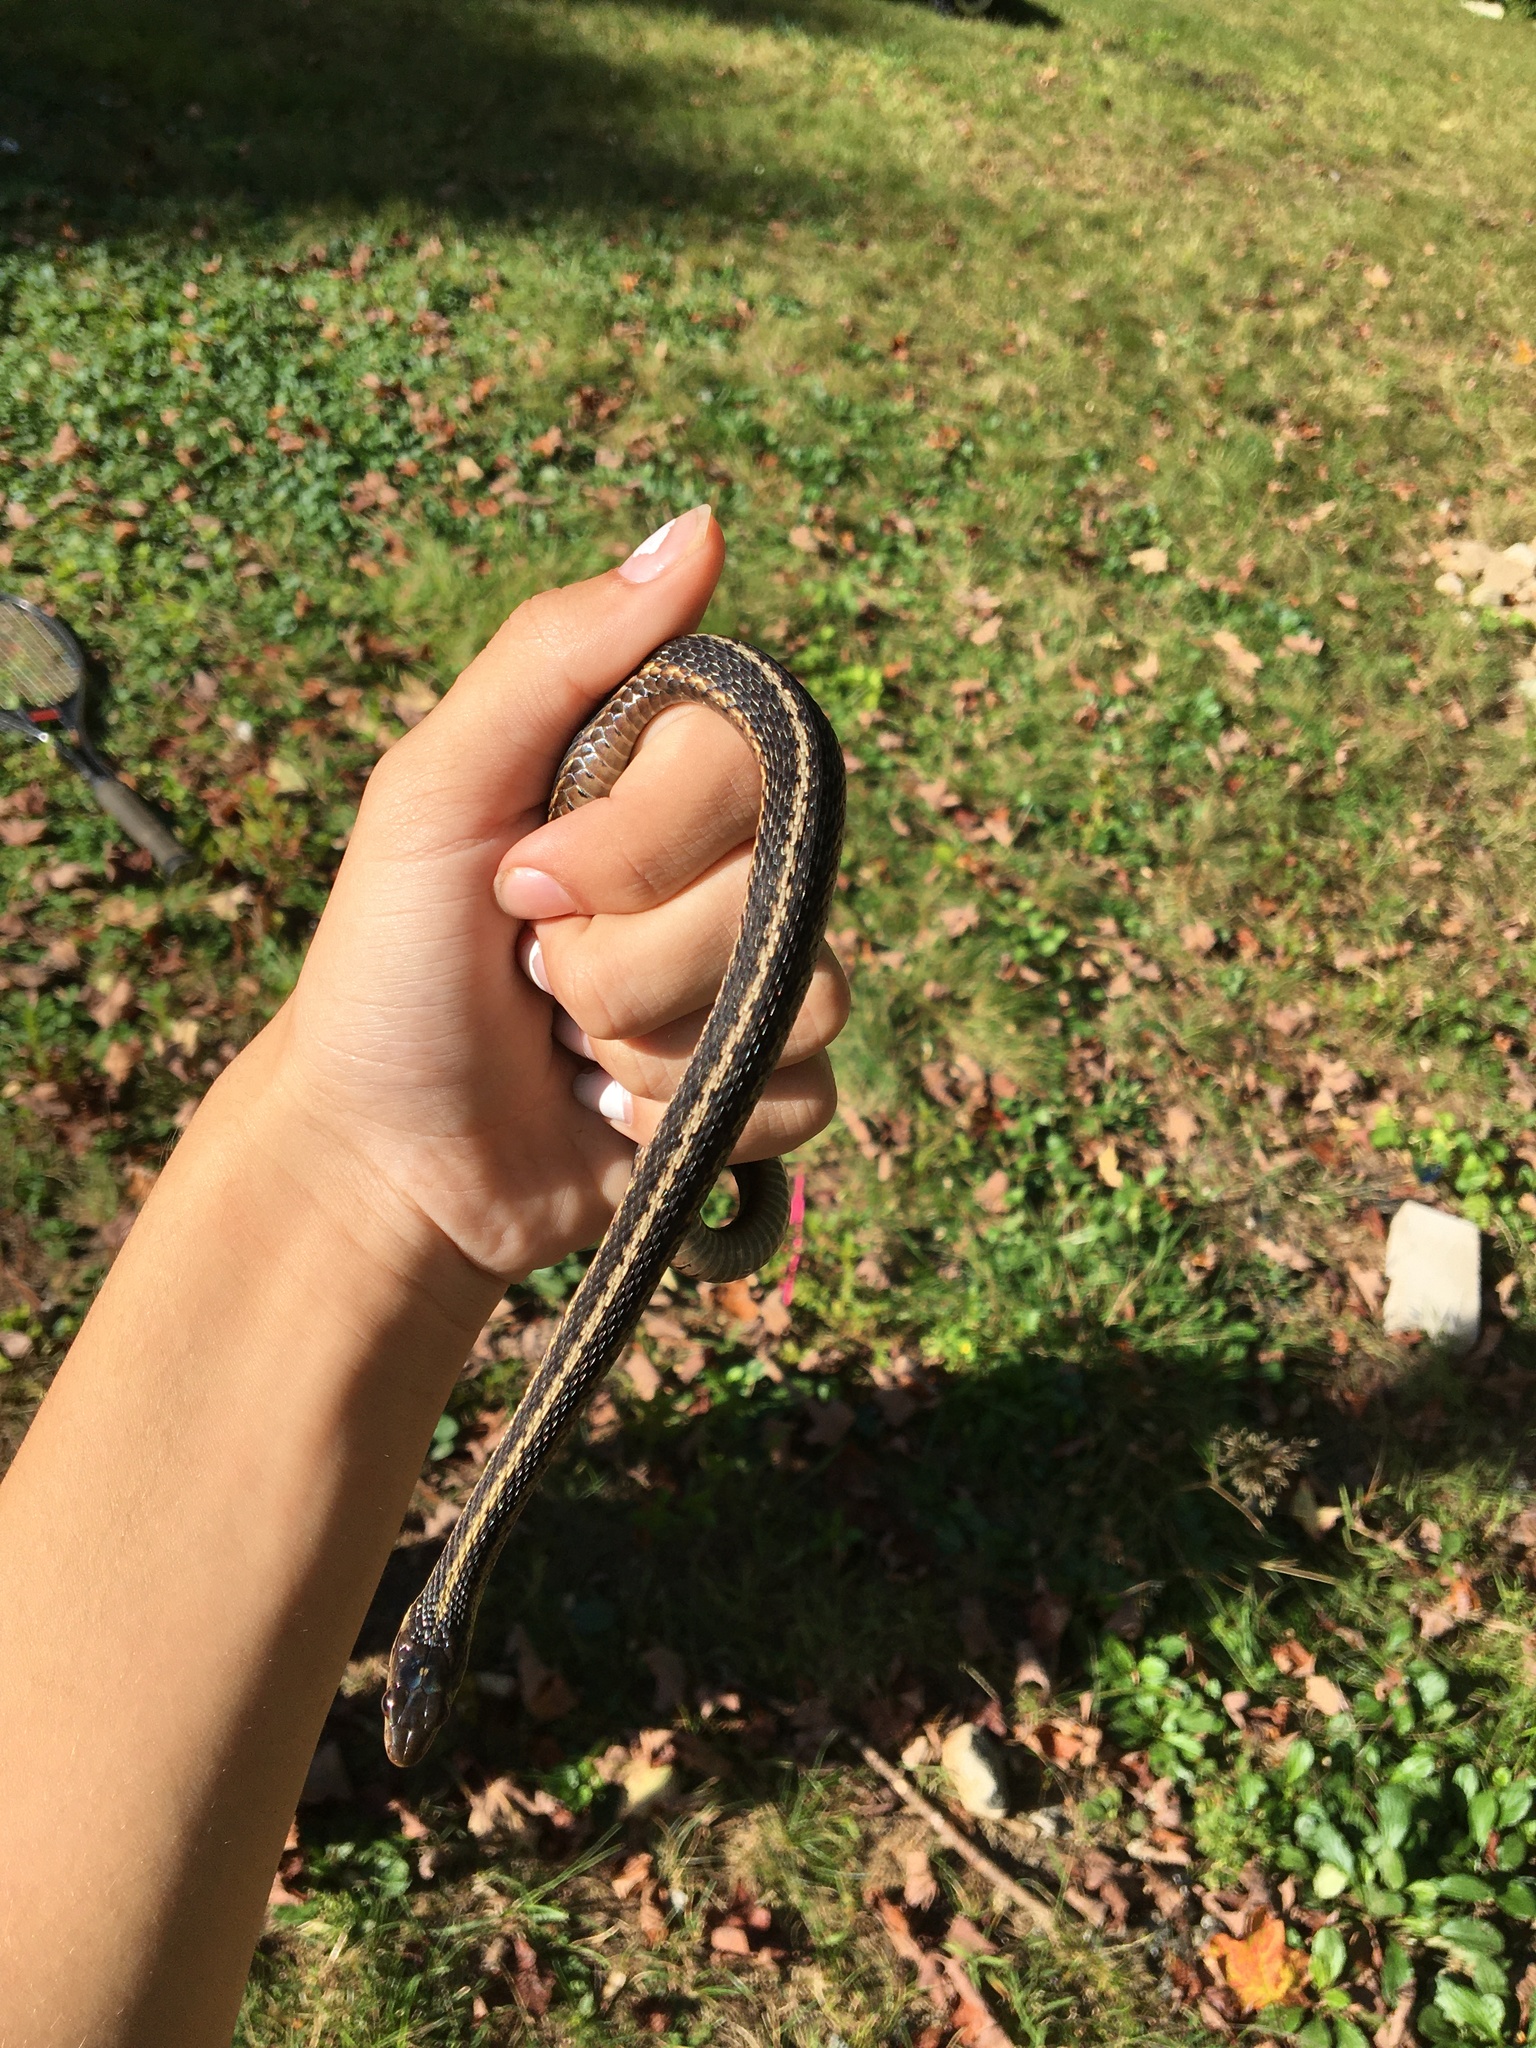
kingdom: Animalia
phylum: Chordata
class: Squamata
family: Colubridae
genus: Thamnophis
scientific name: Thamnophis sirtalis
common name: Common garter snake
